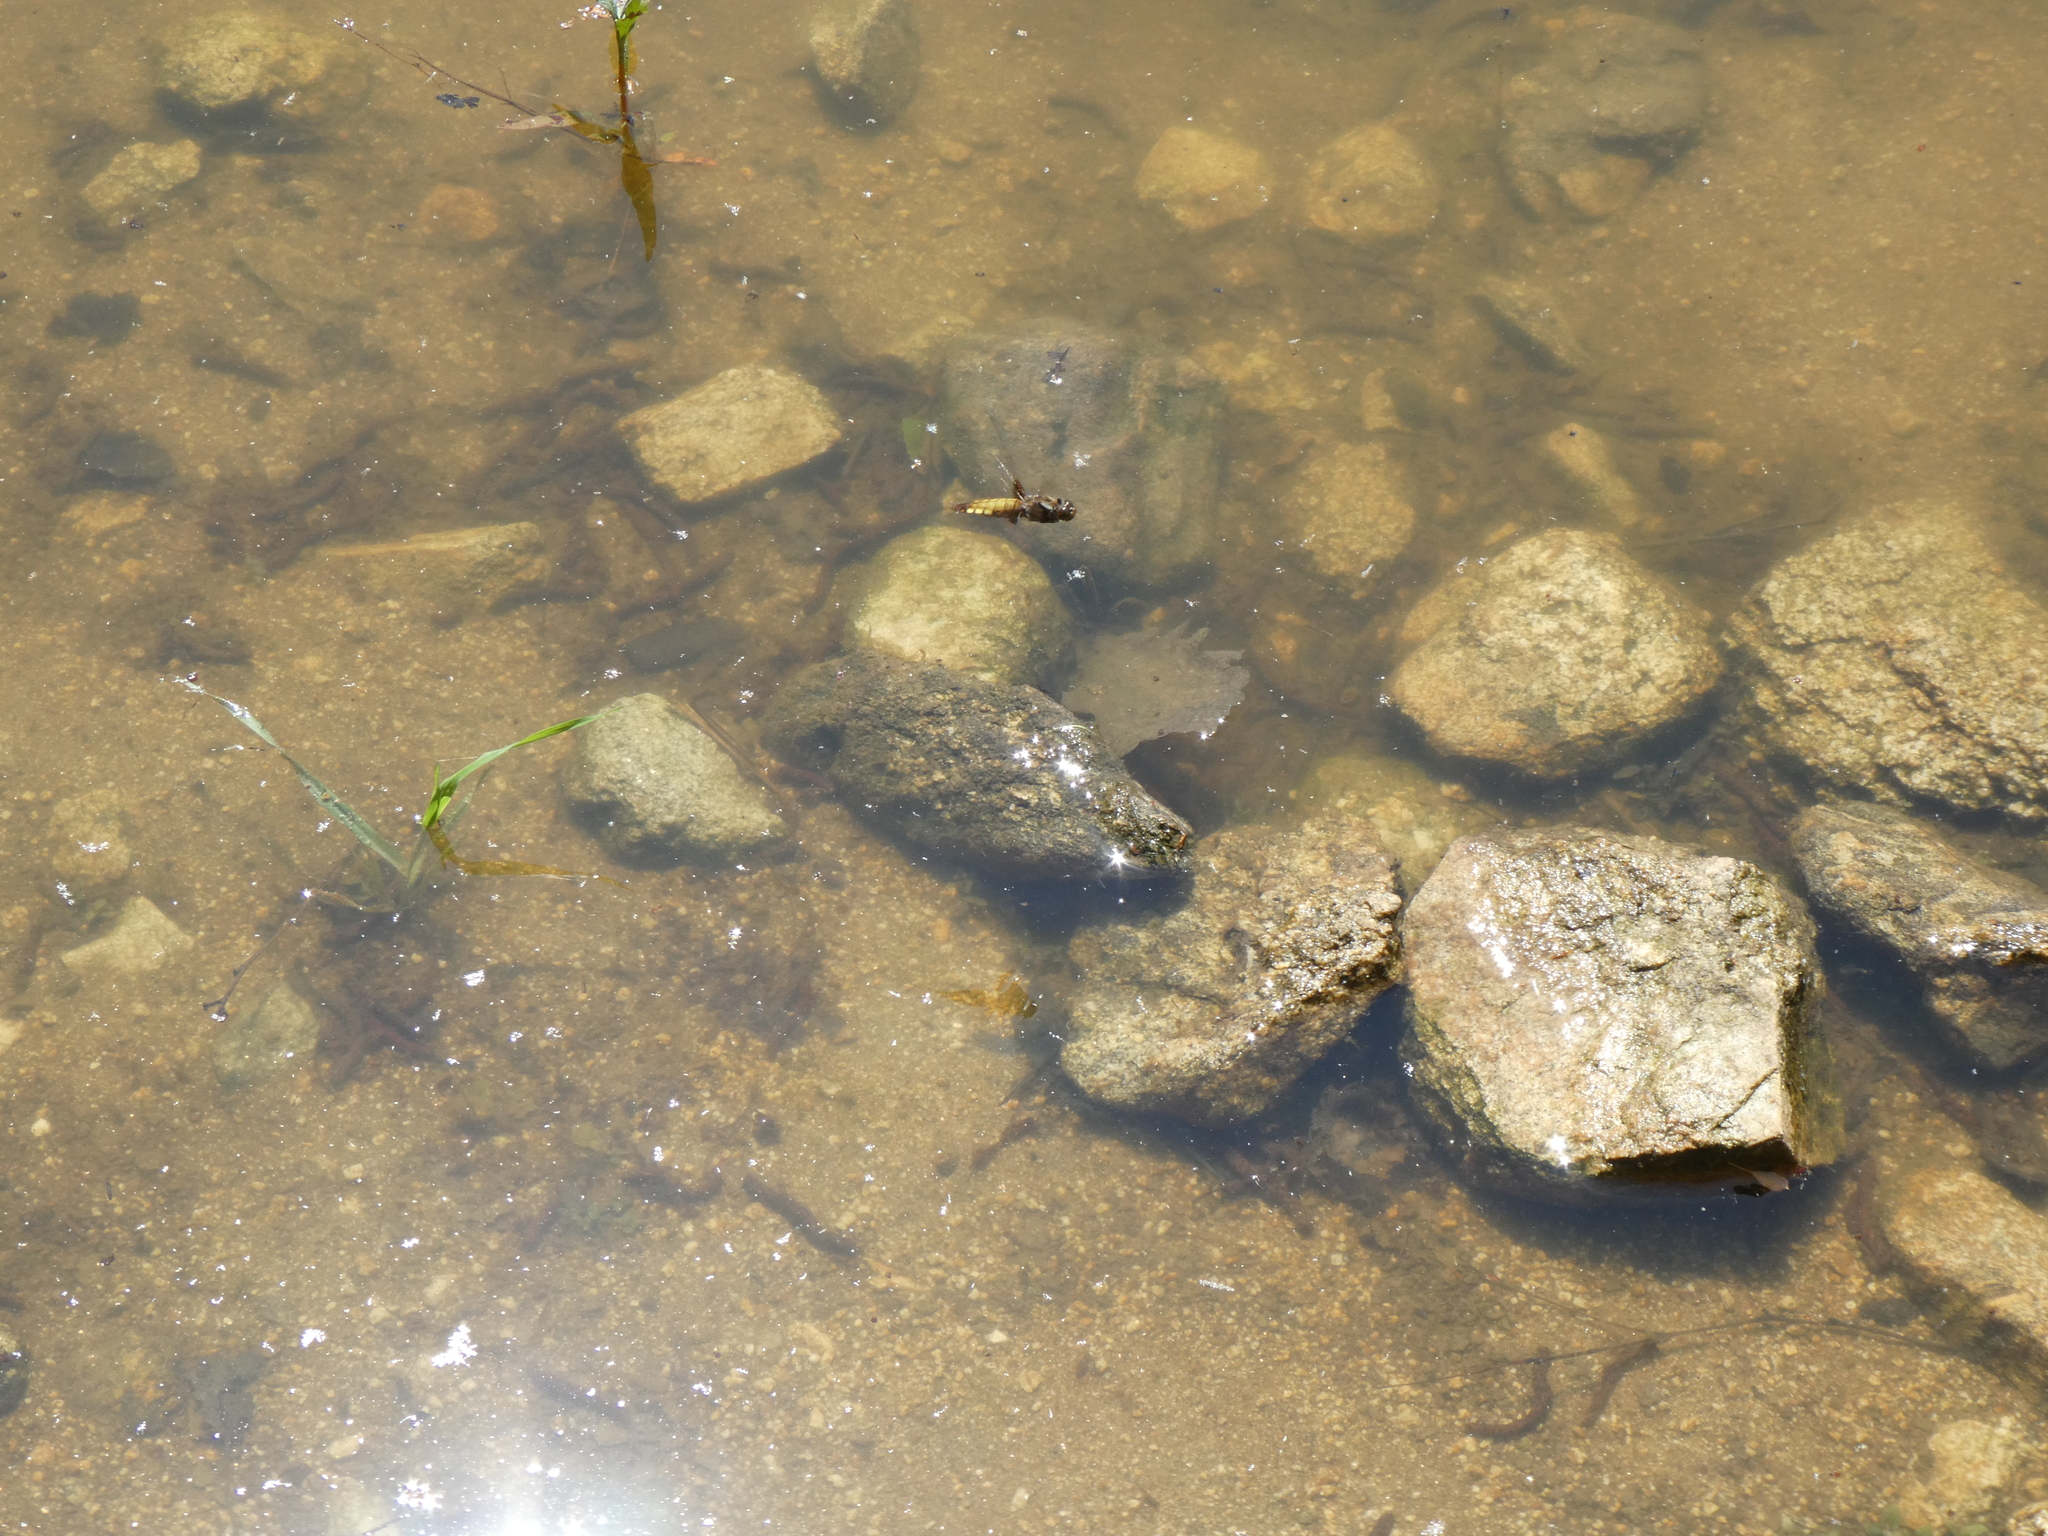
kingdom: Animalia
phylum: Arthropoda
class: Insecta
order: Odonata
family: Libellulidae
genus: Libellula
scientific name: Libellula depressa
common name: Broad-bodied chaser
